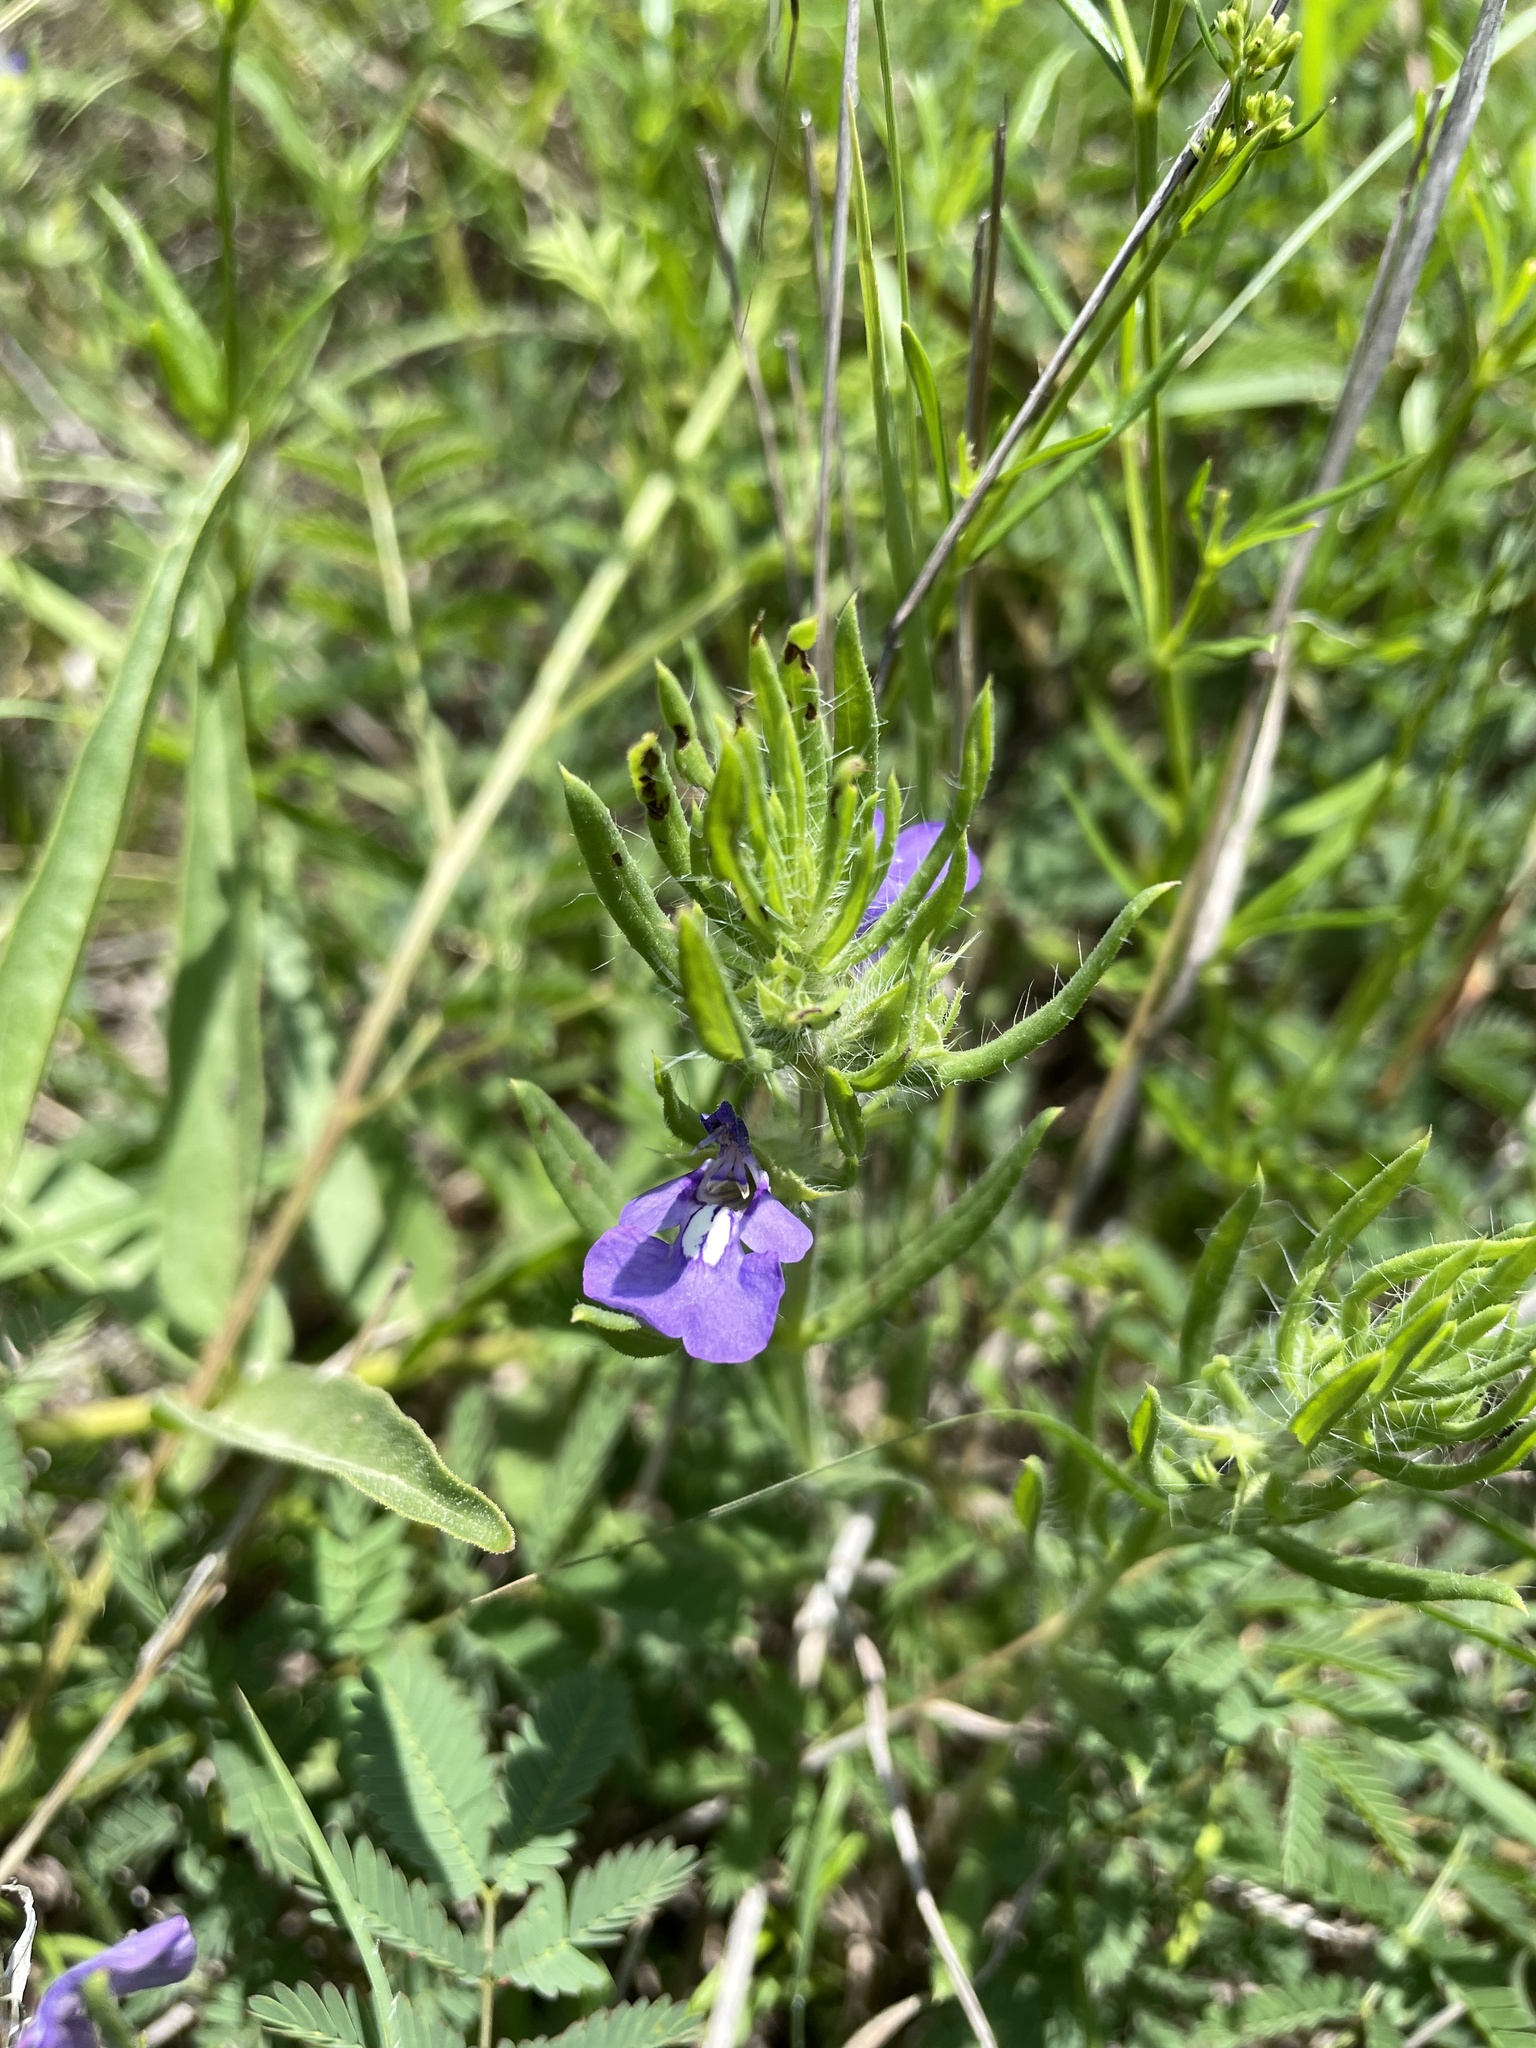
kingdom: Plantae
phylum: Tracheophyta
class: Magnoliopsida
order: Lamiales
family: Lamiaceae
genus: Salvia
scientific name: Salvia texana
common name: Texas sage
